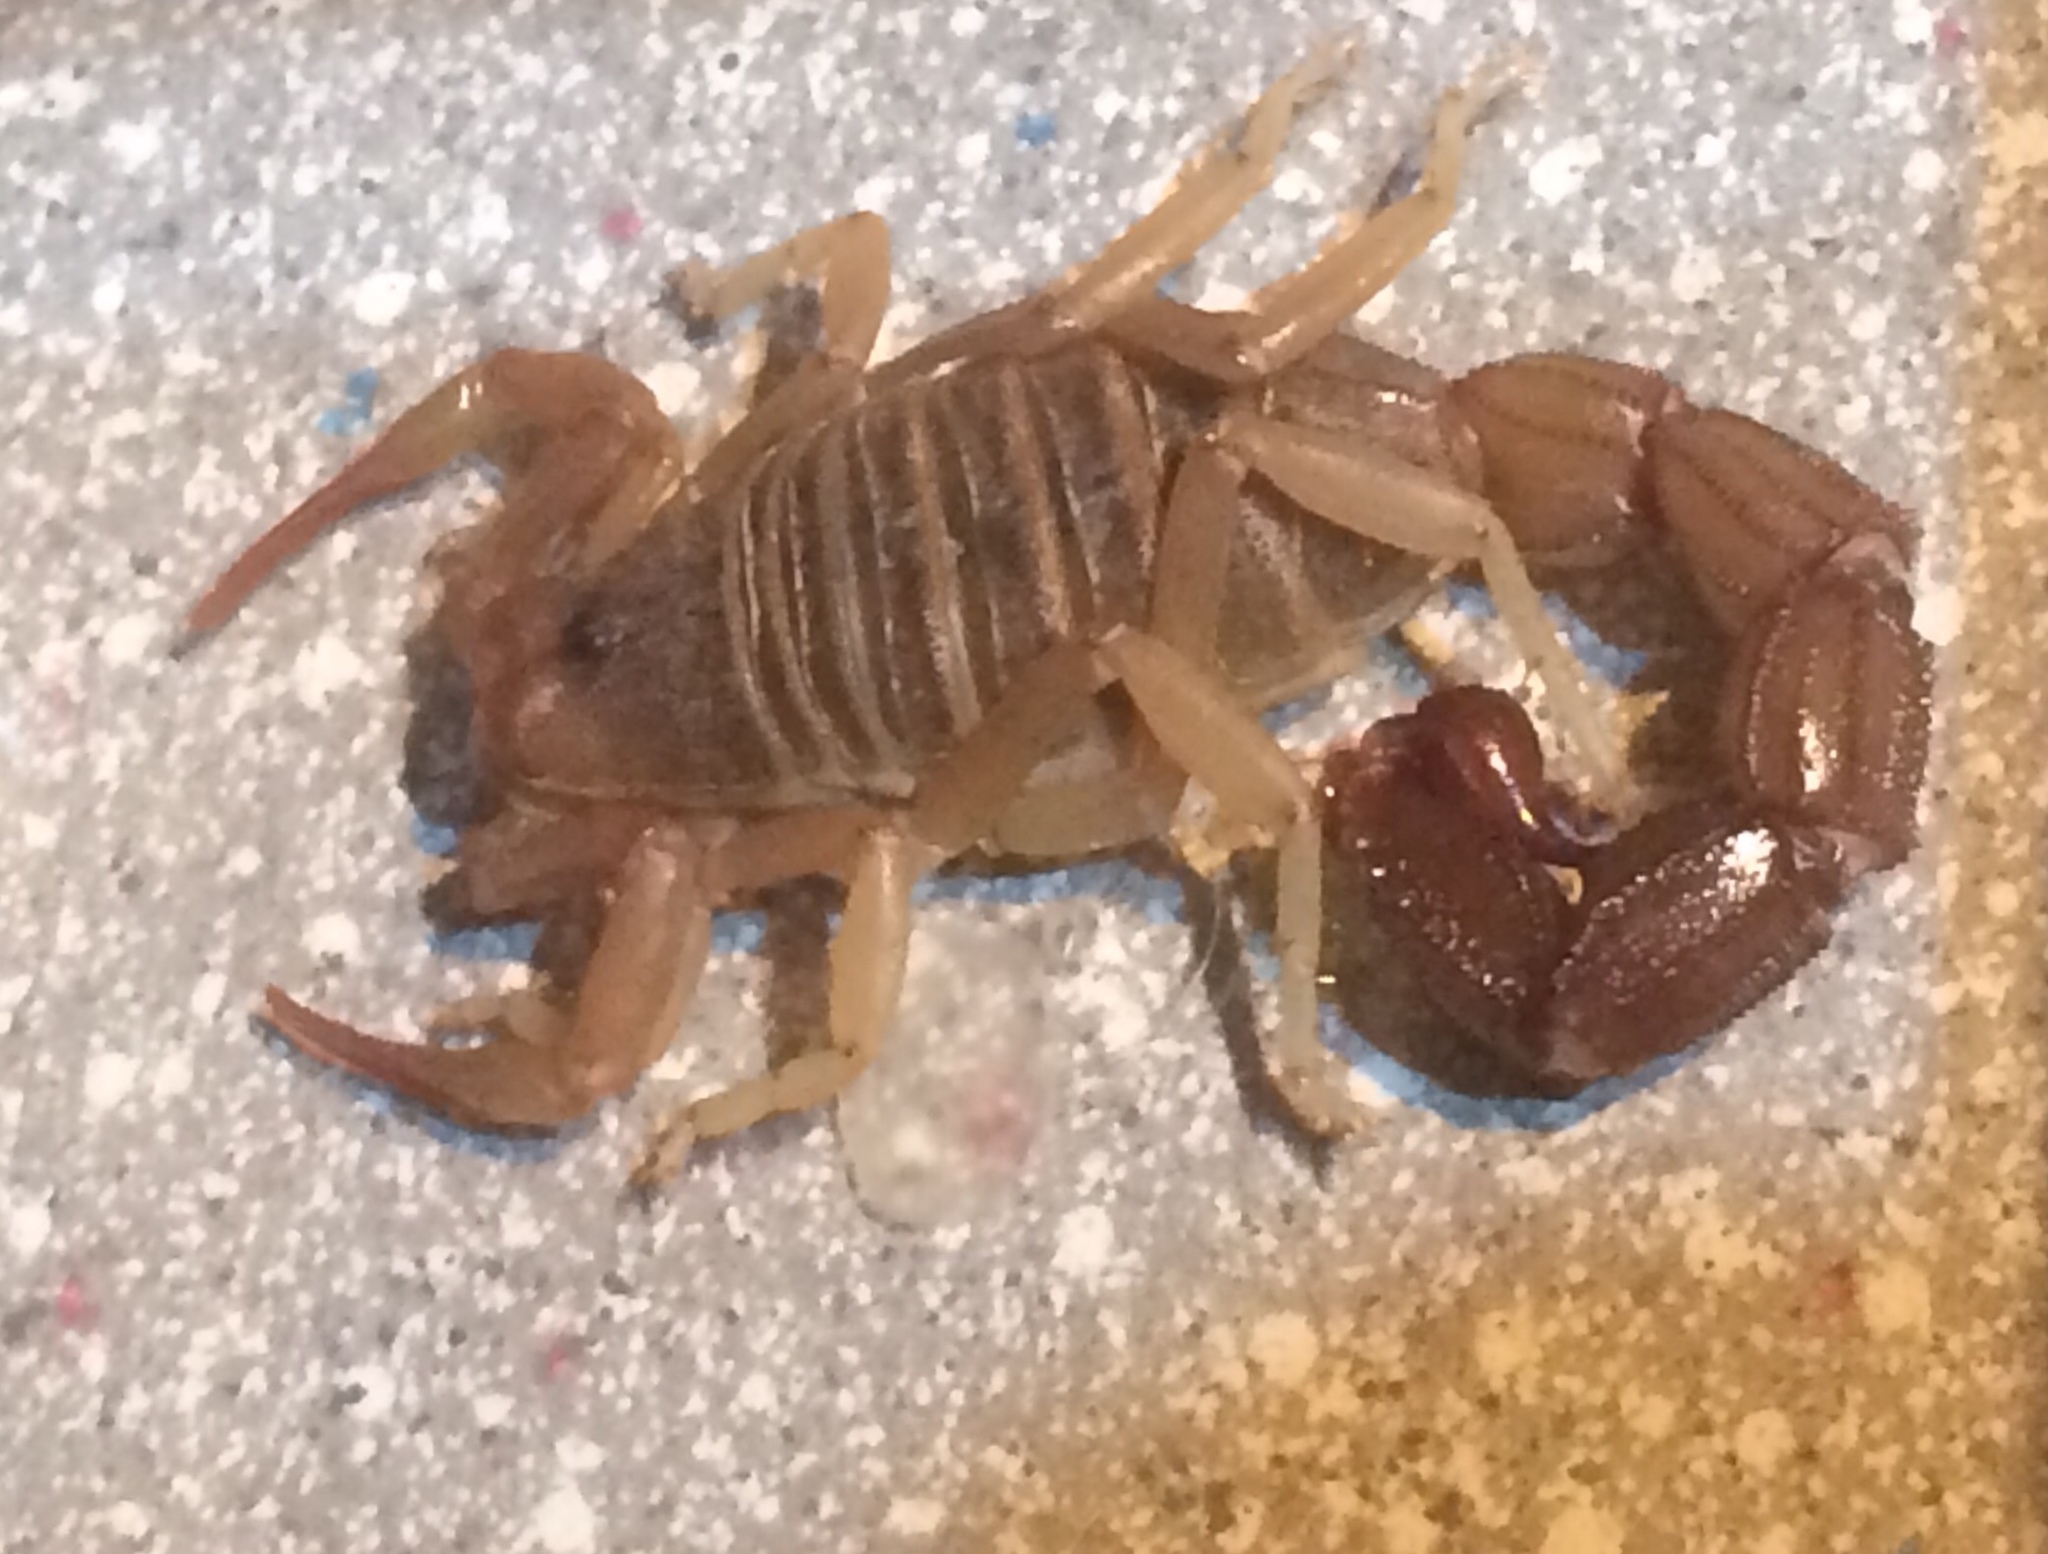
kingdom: Animalia
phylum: Arthropoda
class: Arachnida
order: Scorpiones
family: Buthidae
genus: Parabuthus
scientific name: Parabuthus granulatus
